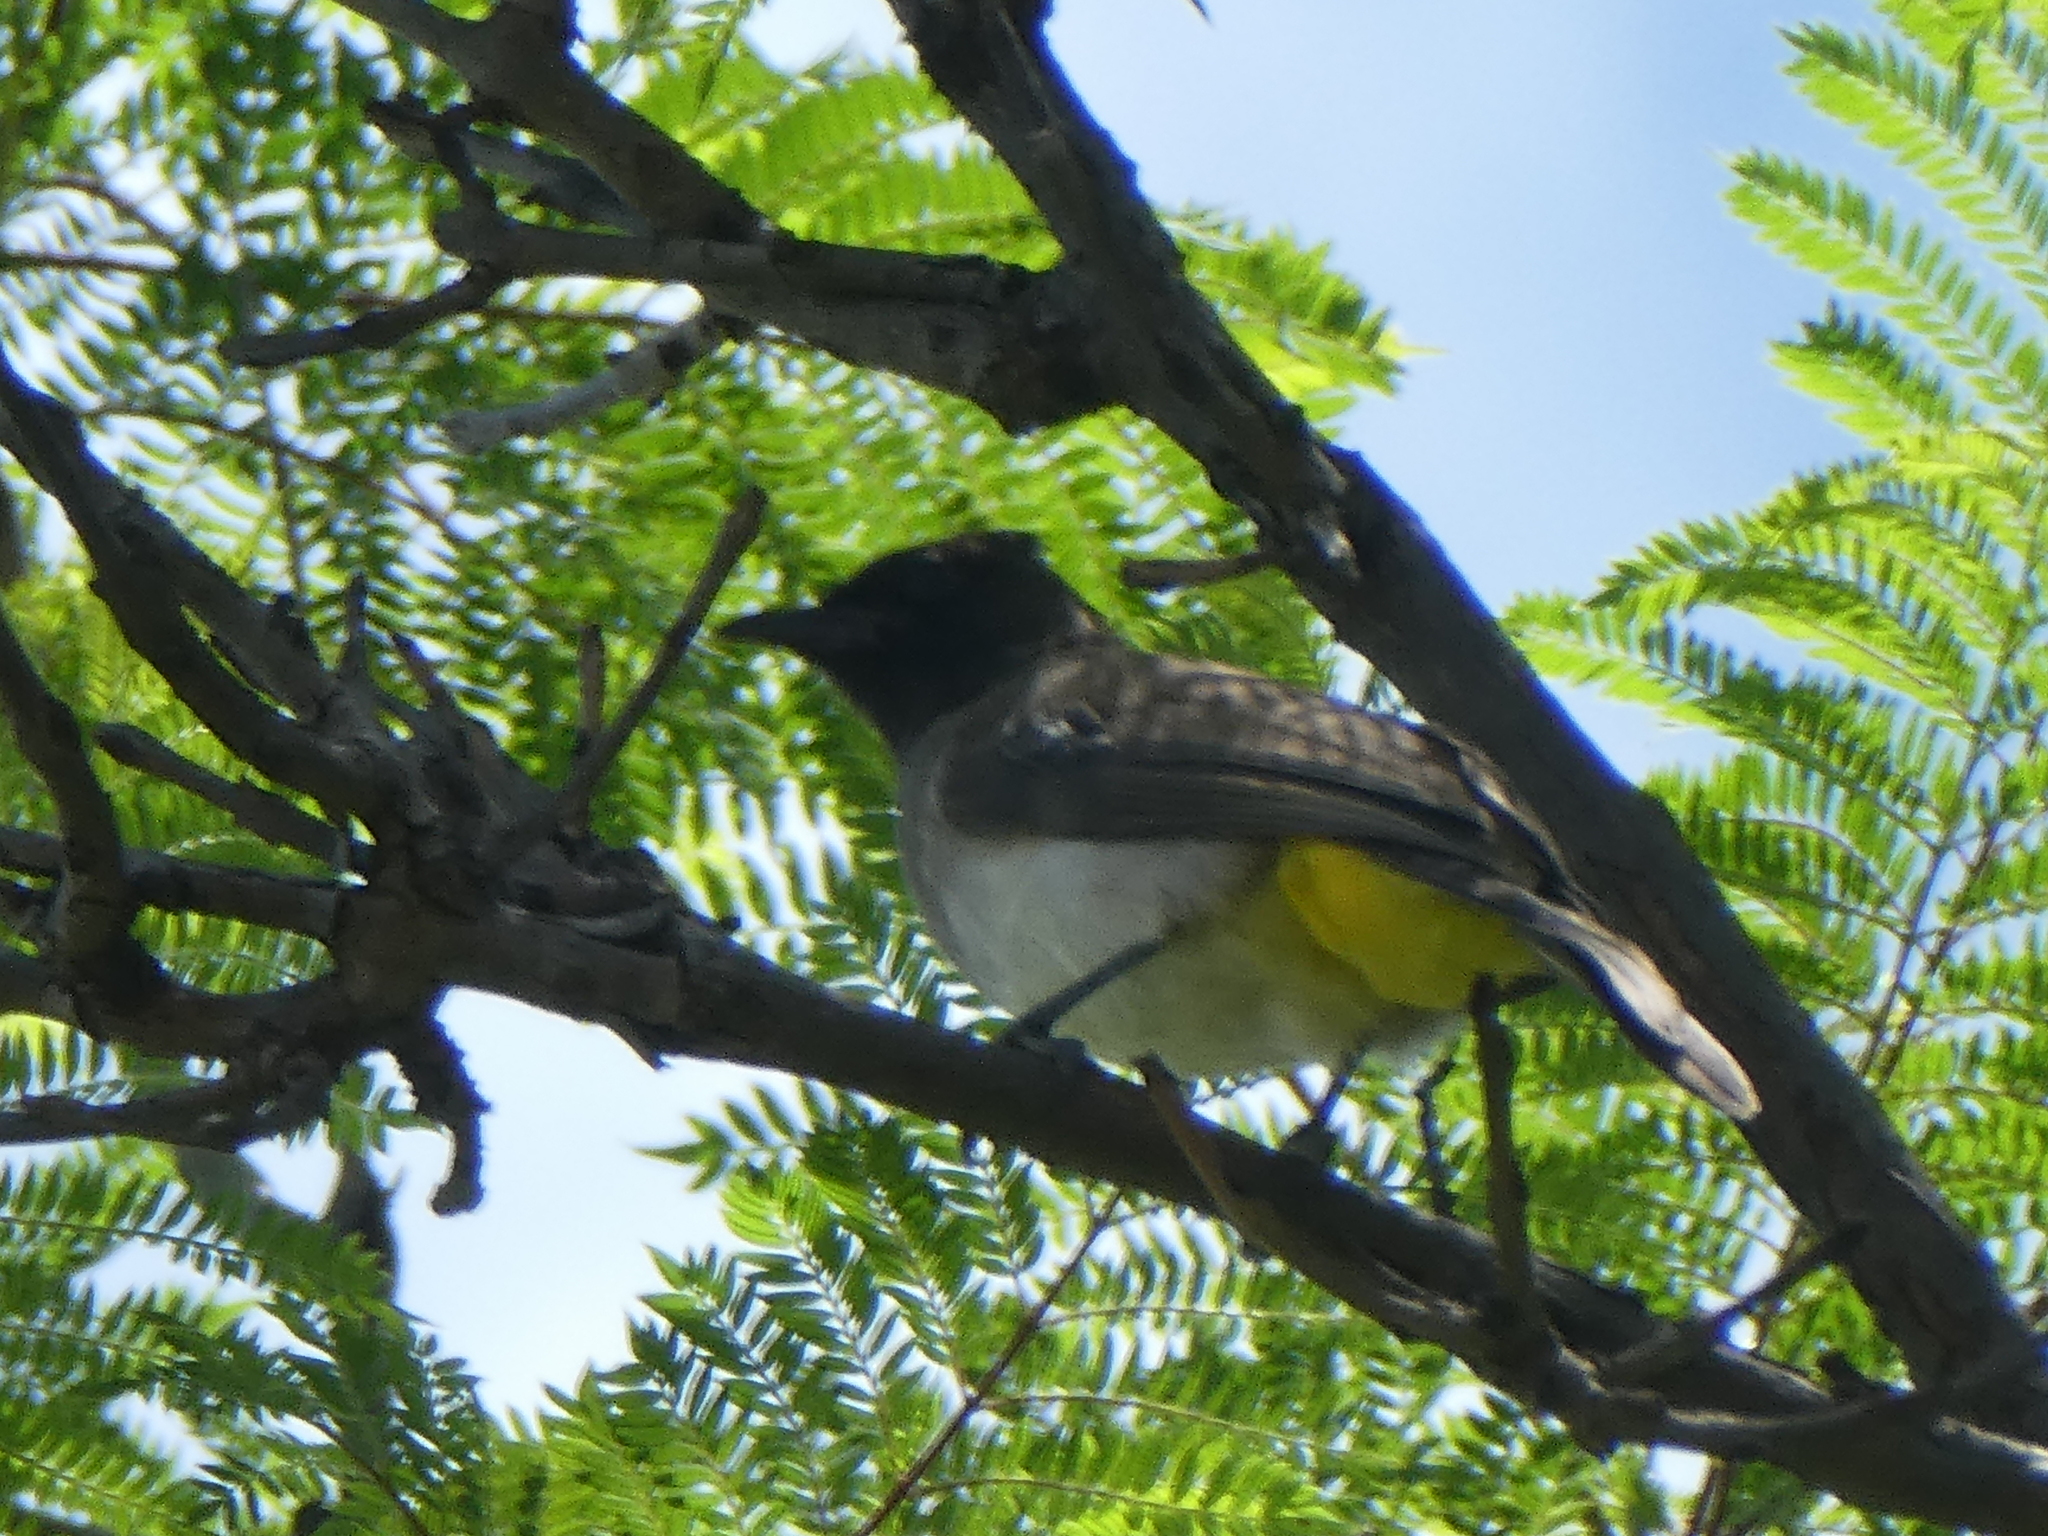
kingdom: Animalia
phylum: Chordata
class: Aves
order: Passeriformes
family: Pycnonotidae
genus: Pycnonotus
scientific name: Pycnonotus barbatus
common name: Common bulbul
